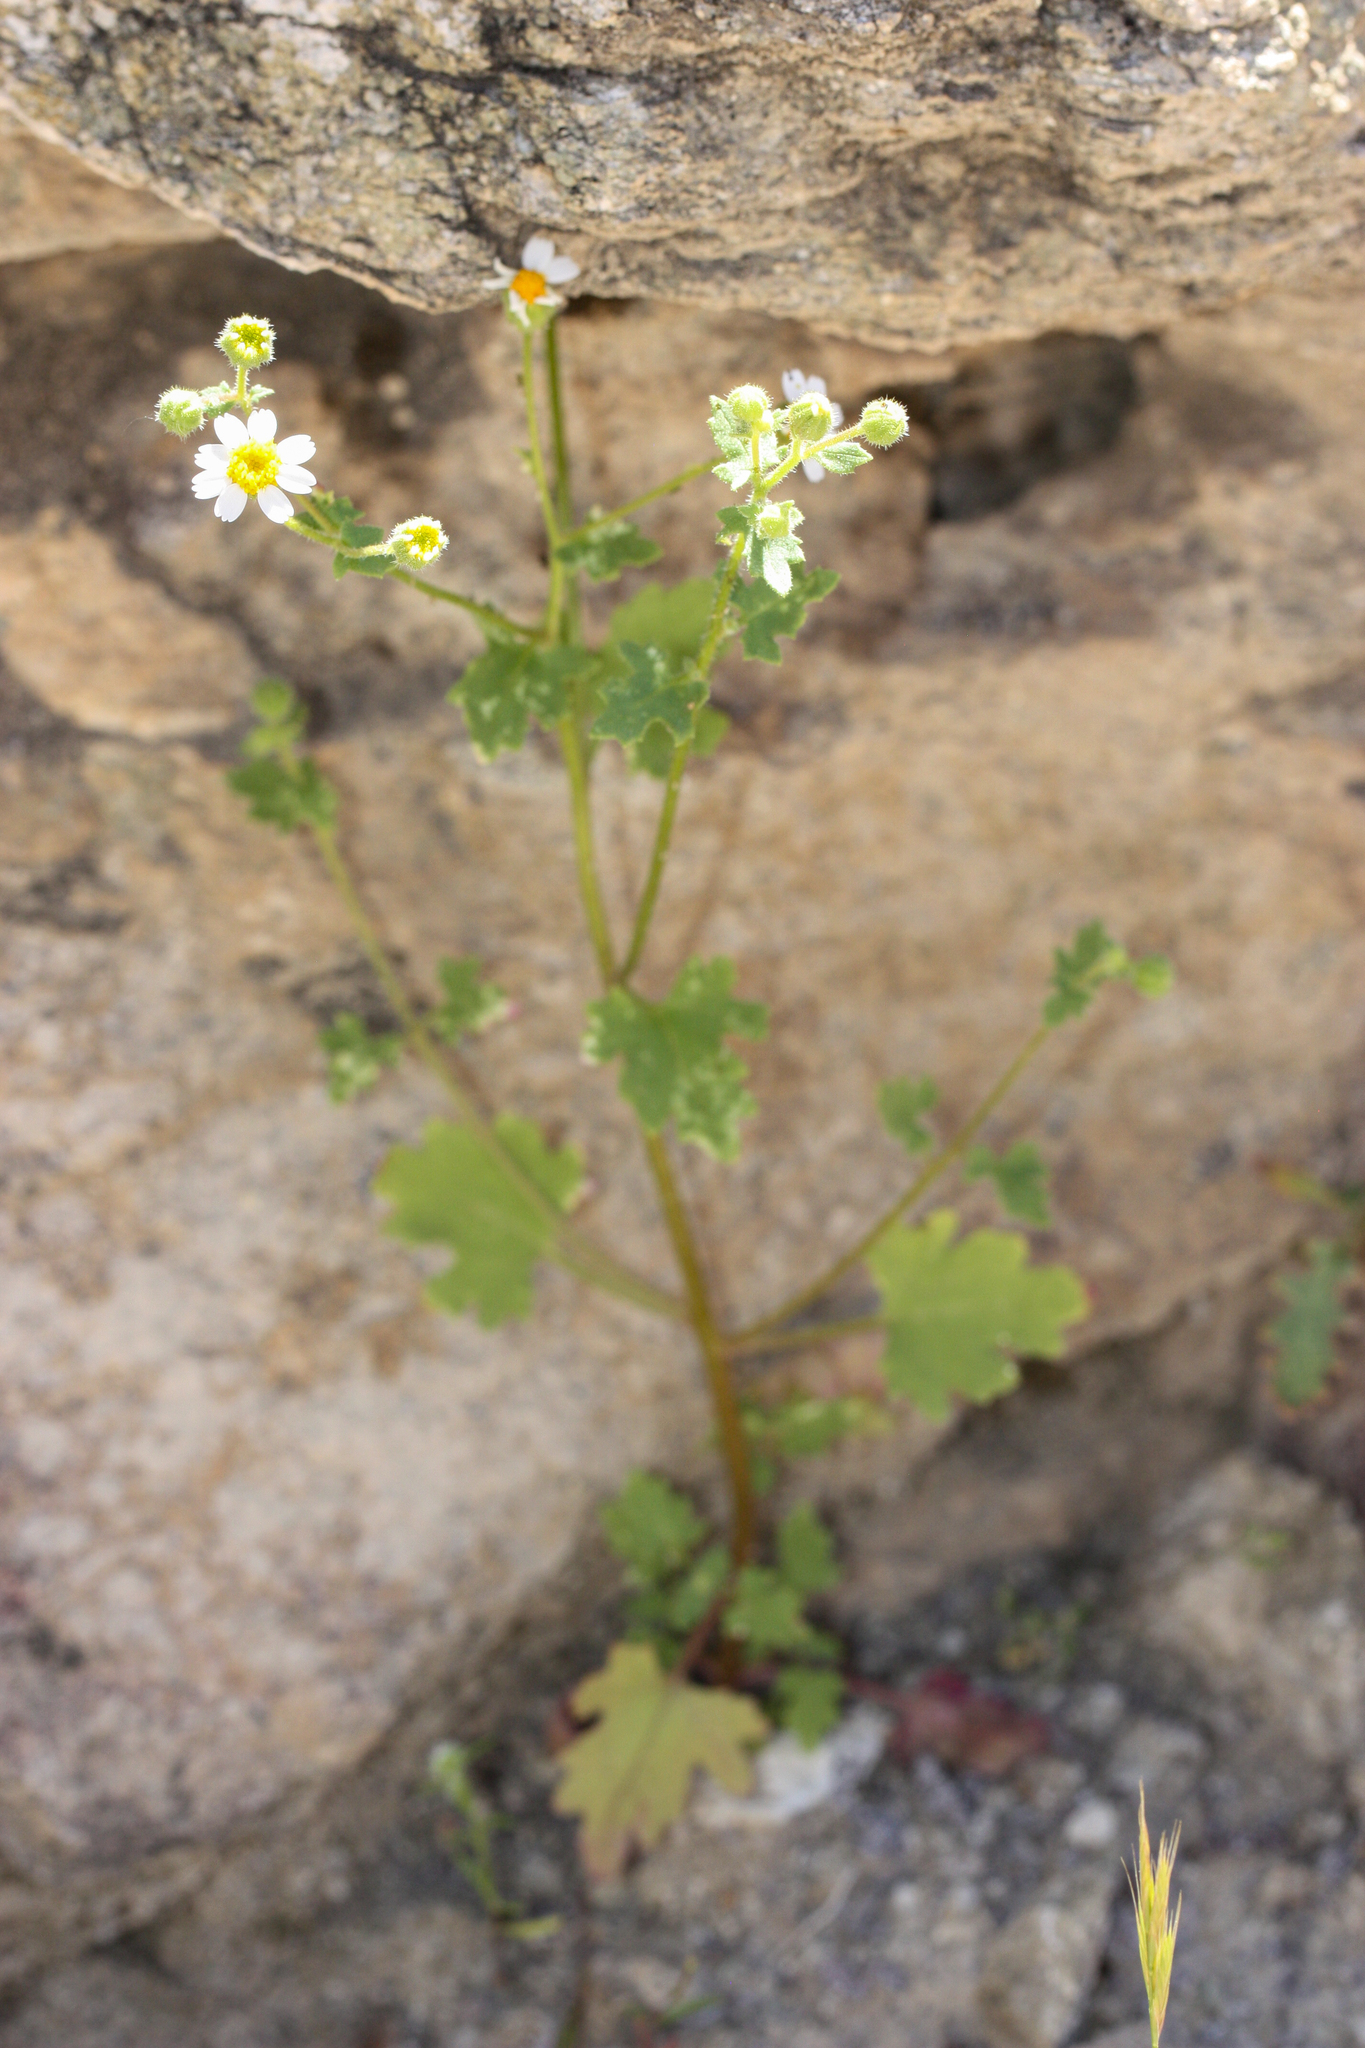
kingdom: Plantae
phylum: Tracheophyta
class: Magnoliopsida
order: Asterales
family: Asteraceae
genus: Laphamia
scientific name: Laphamia emoryi
